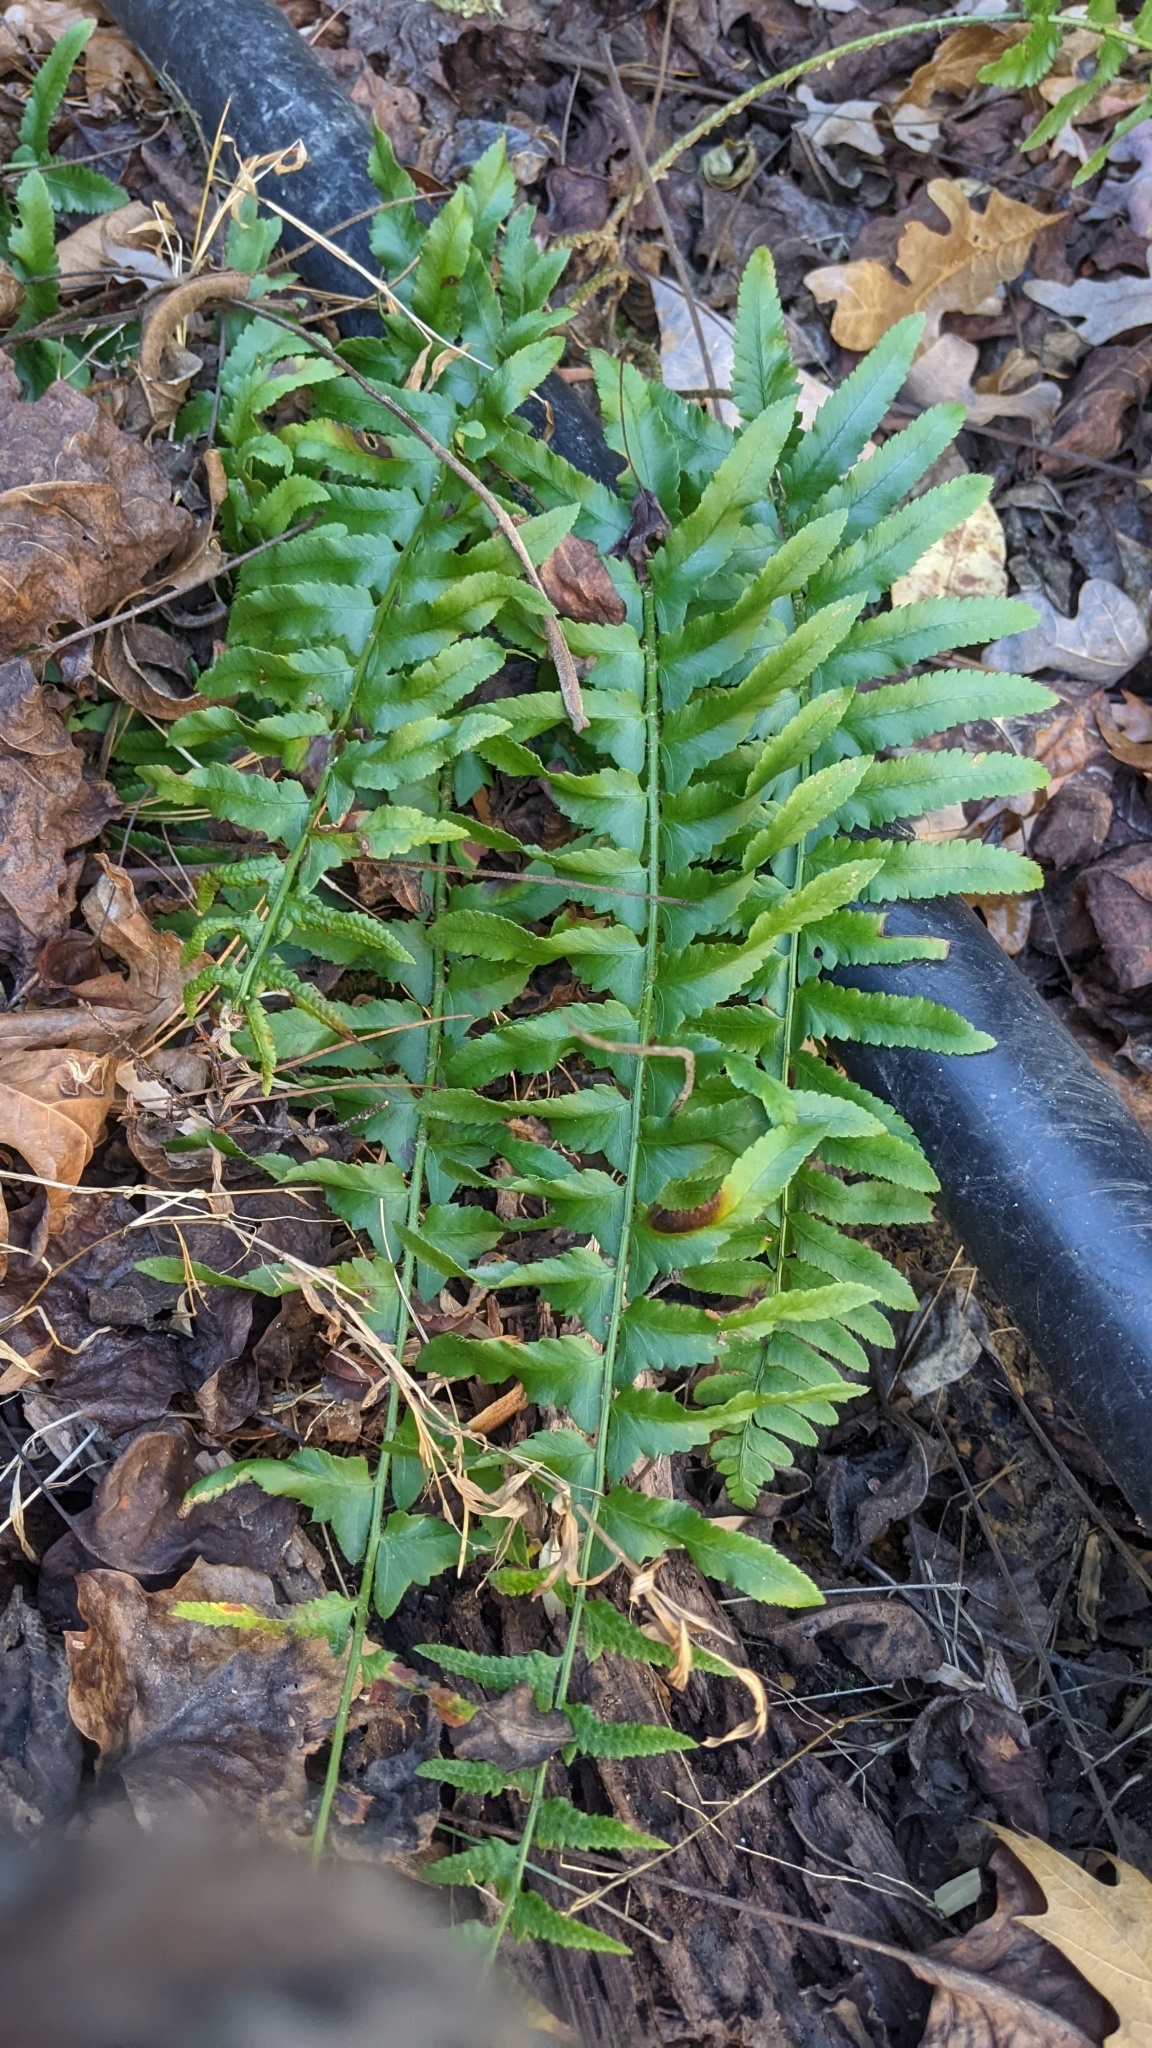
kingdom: Plantae
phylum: Tracheophyta
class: Polypodiopsida
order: Polypodiales
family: Dryopteridaceae
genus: Polystichum
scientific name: Polystichum acrostichoides
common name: Christmas fern
